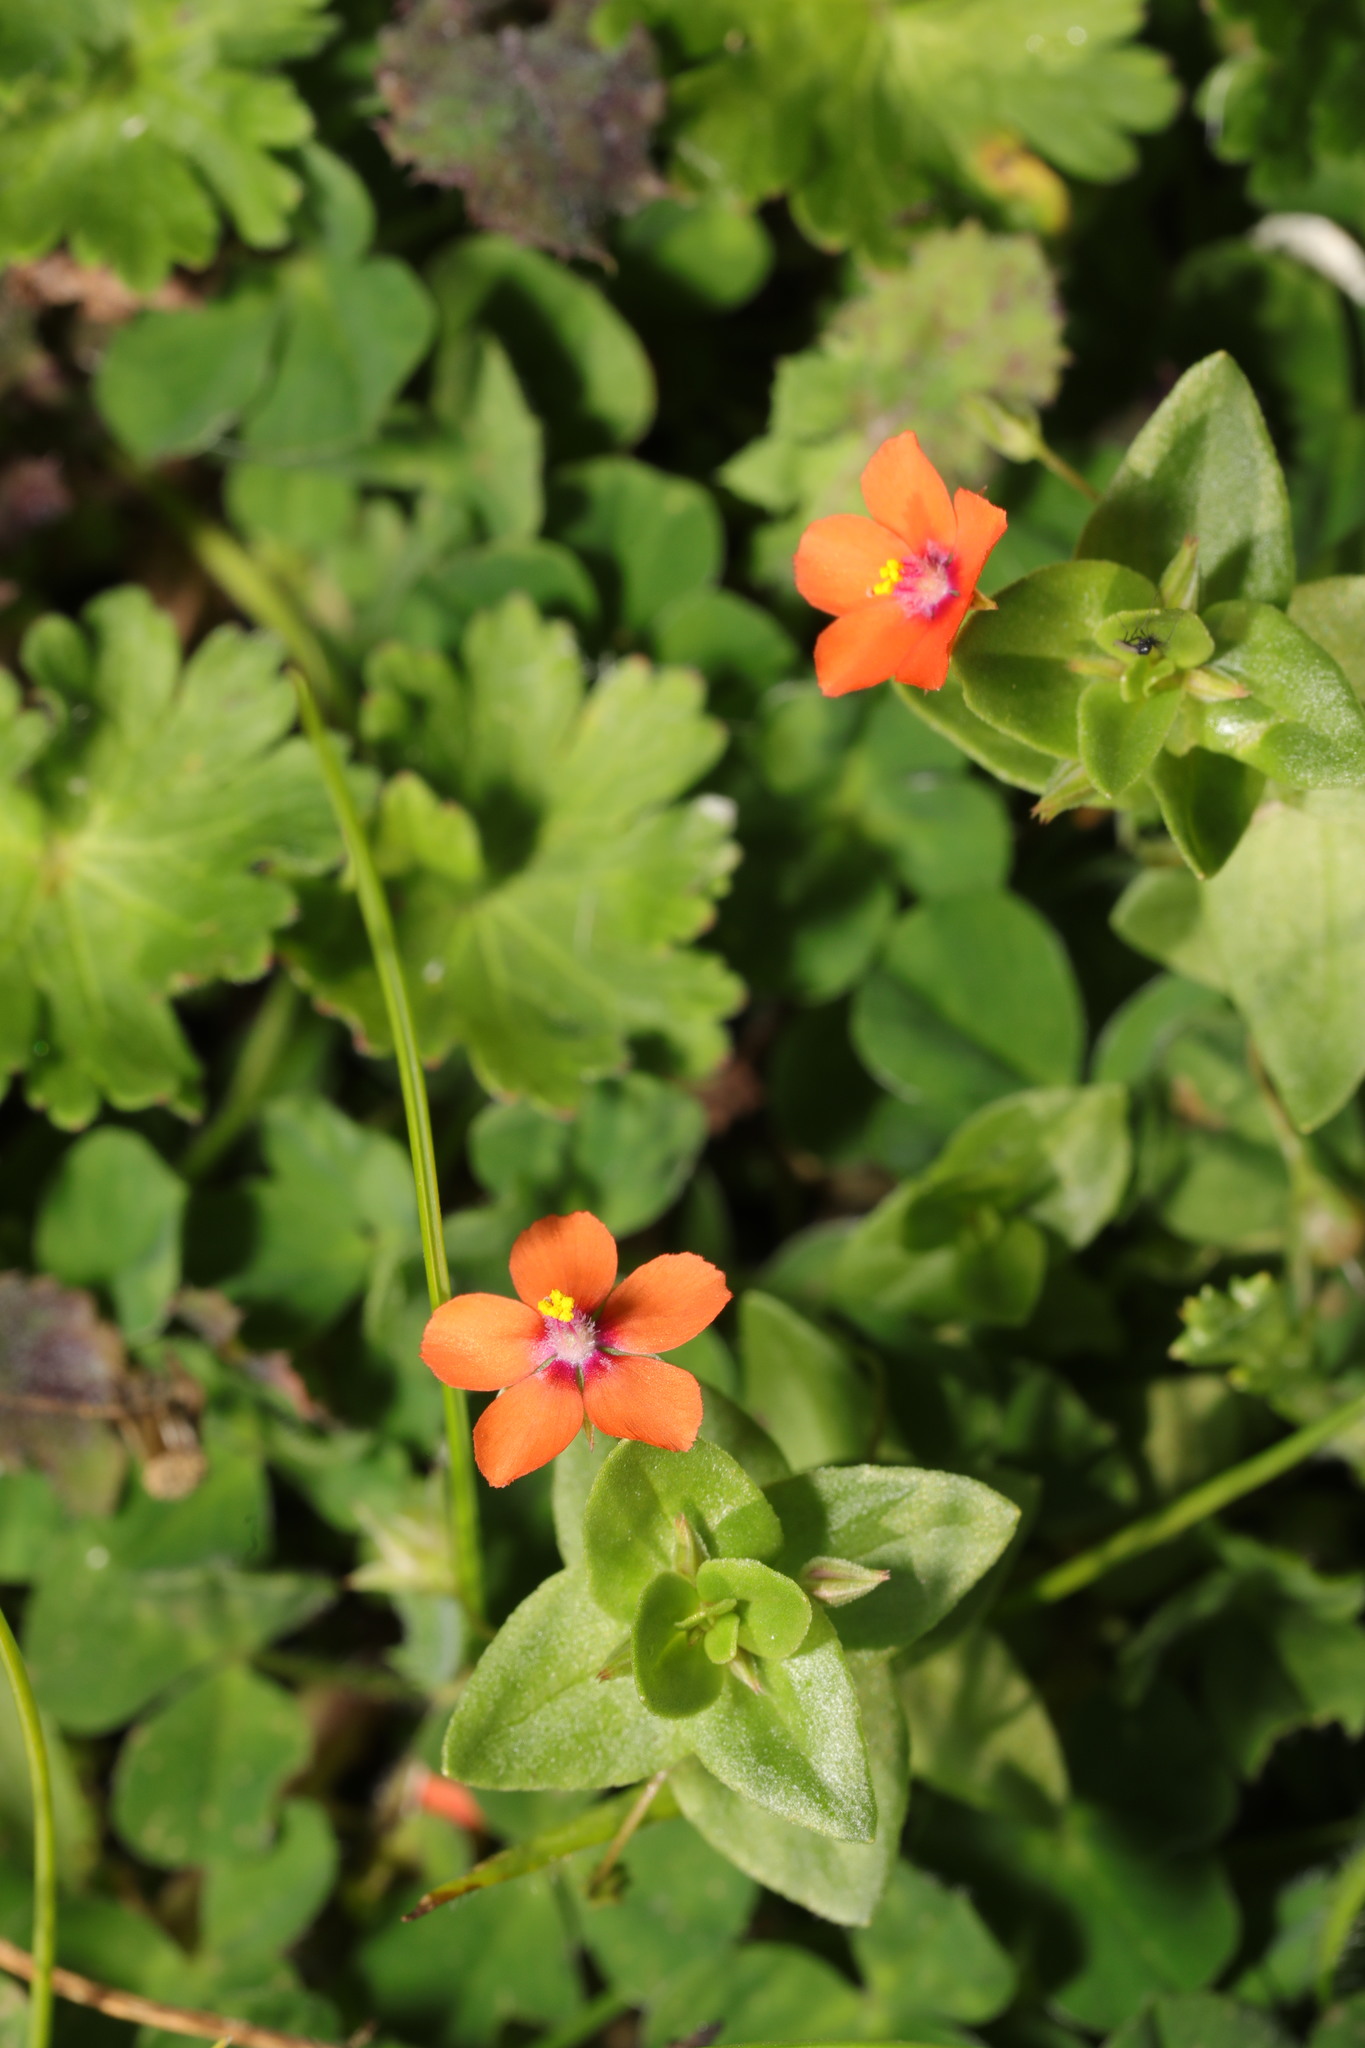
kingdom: Plantae
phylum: Tracheophyta
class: Magnoliopsida
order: Ericales
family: Primulaceae
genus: Lysimachia
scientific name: Lysimachia arvensis
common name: Scarlet pimpernel
